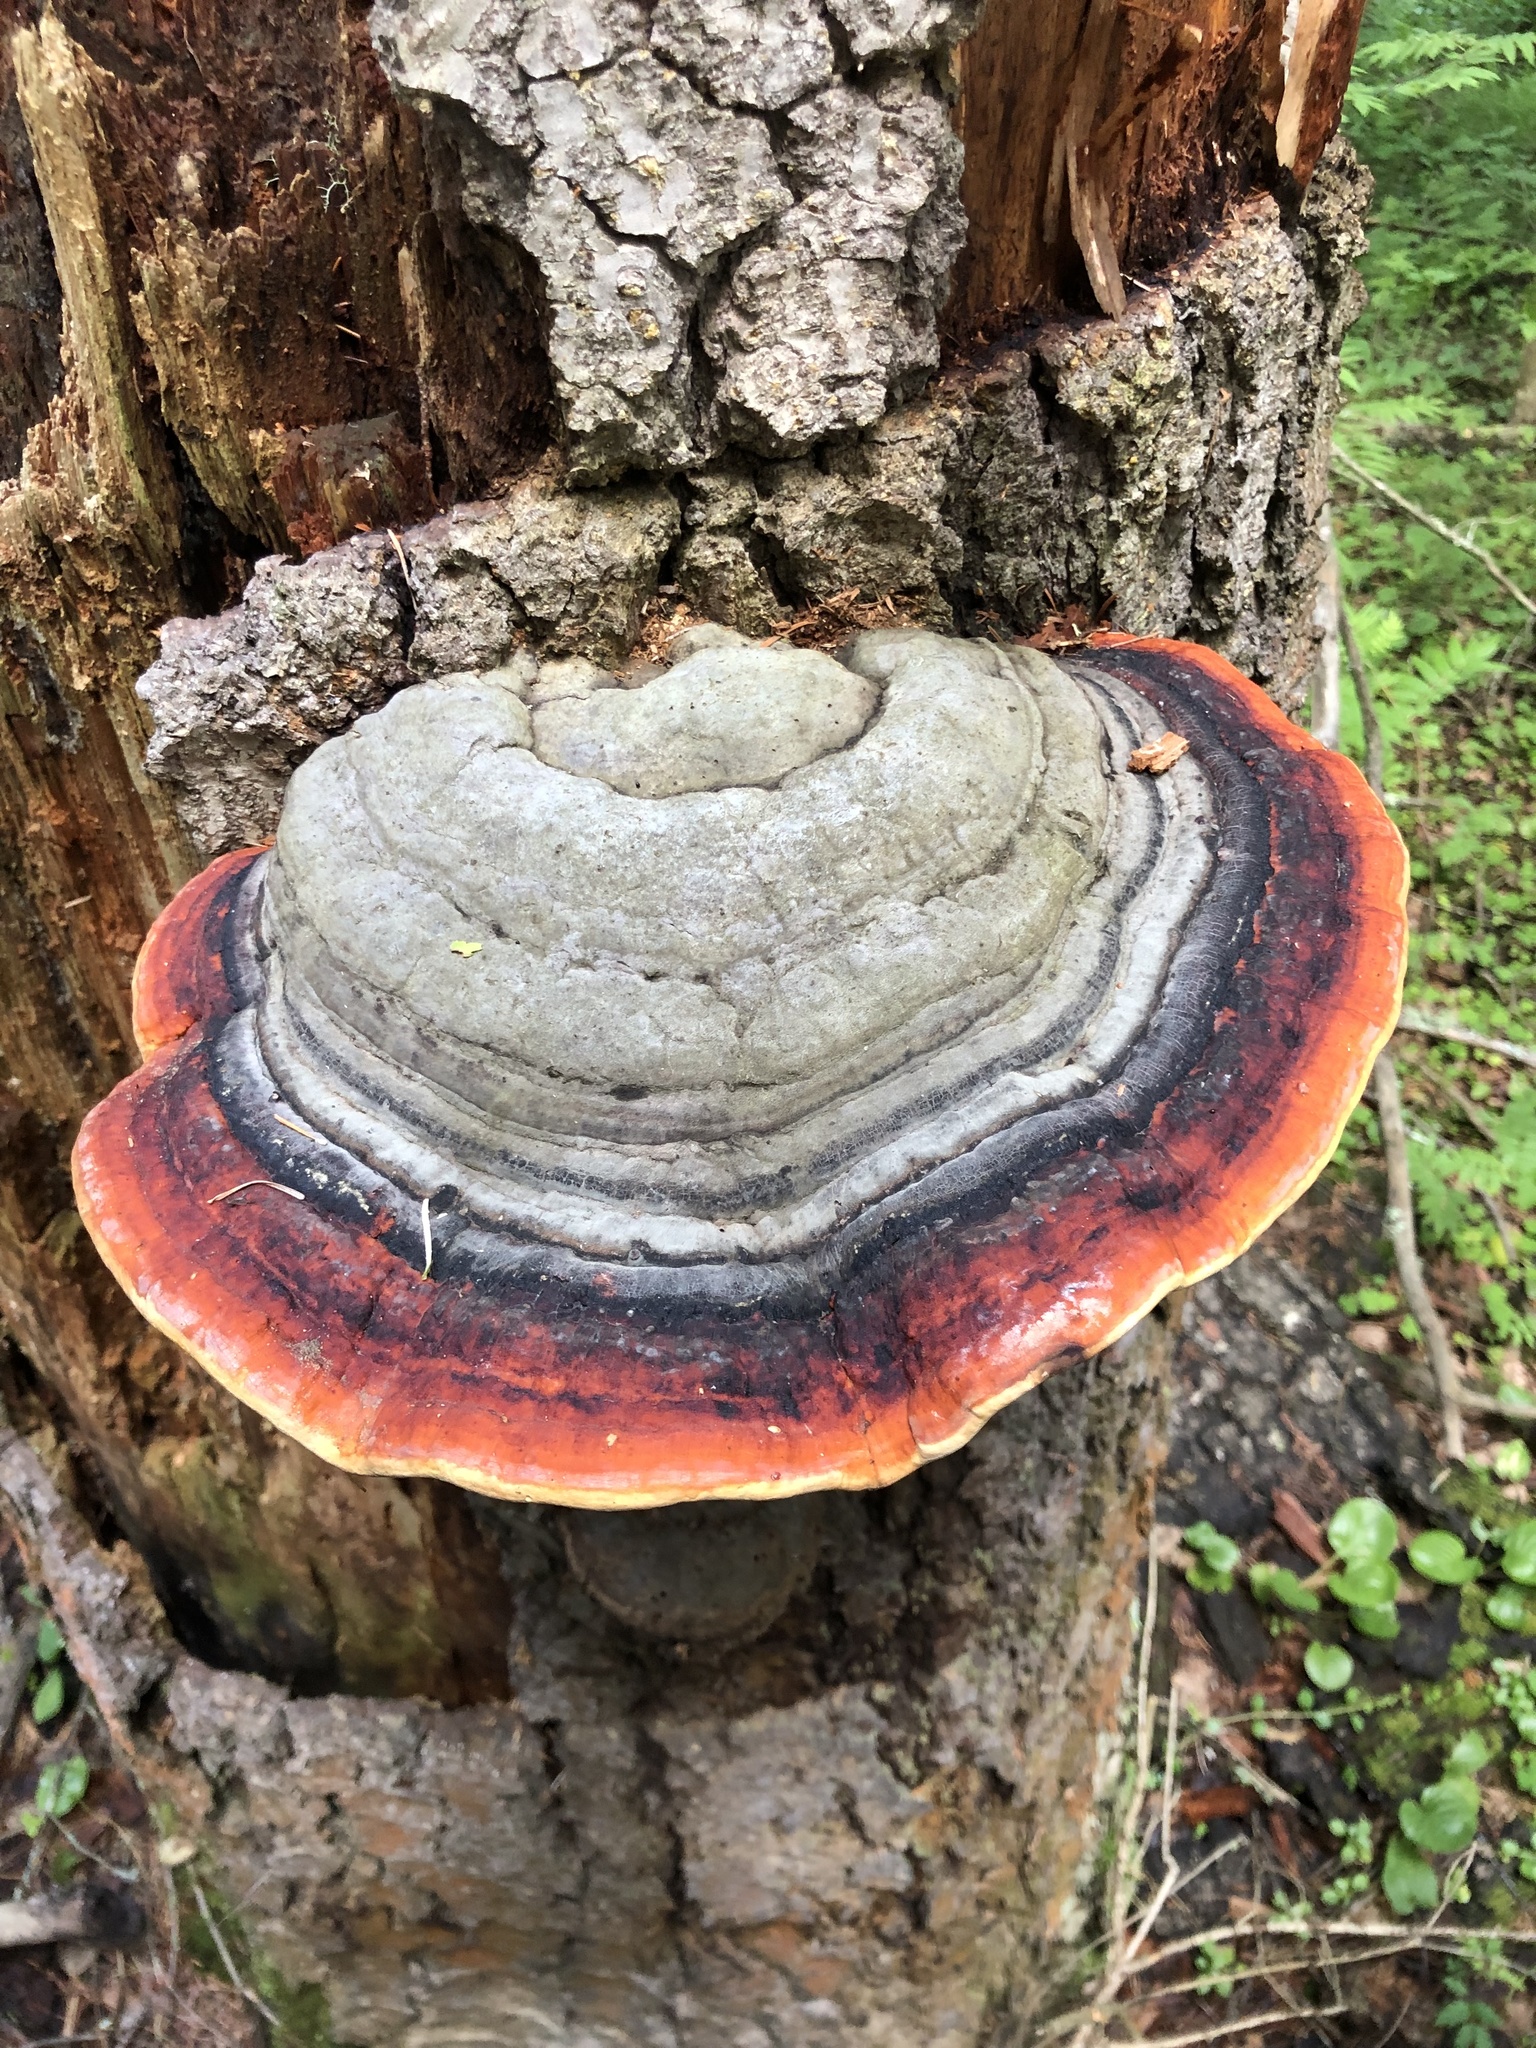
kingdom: Fungi
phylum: Basidiomycota
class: Agaricomycetes
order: Polyporales
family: Fomitopsidaceae
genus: Fomitopsis
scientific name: Fomitopsis pinicola
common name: Red-belted bracket
